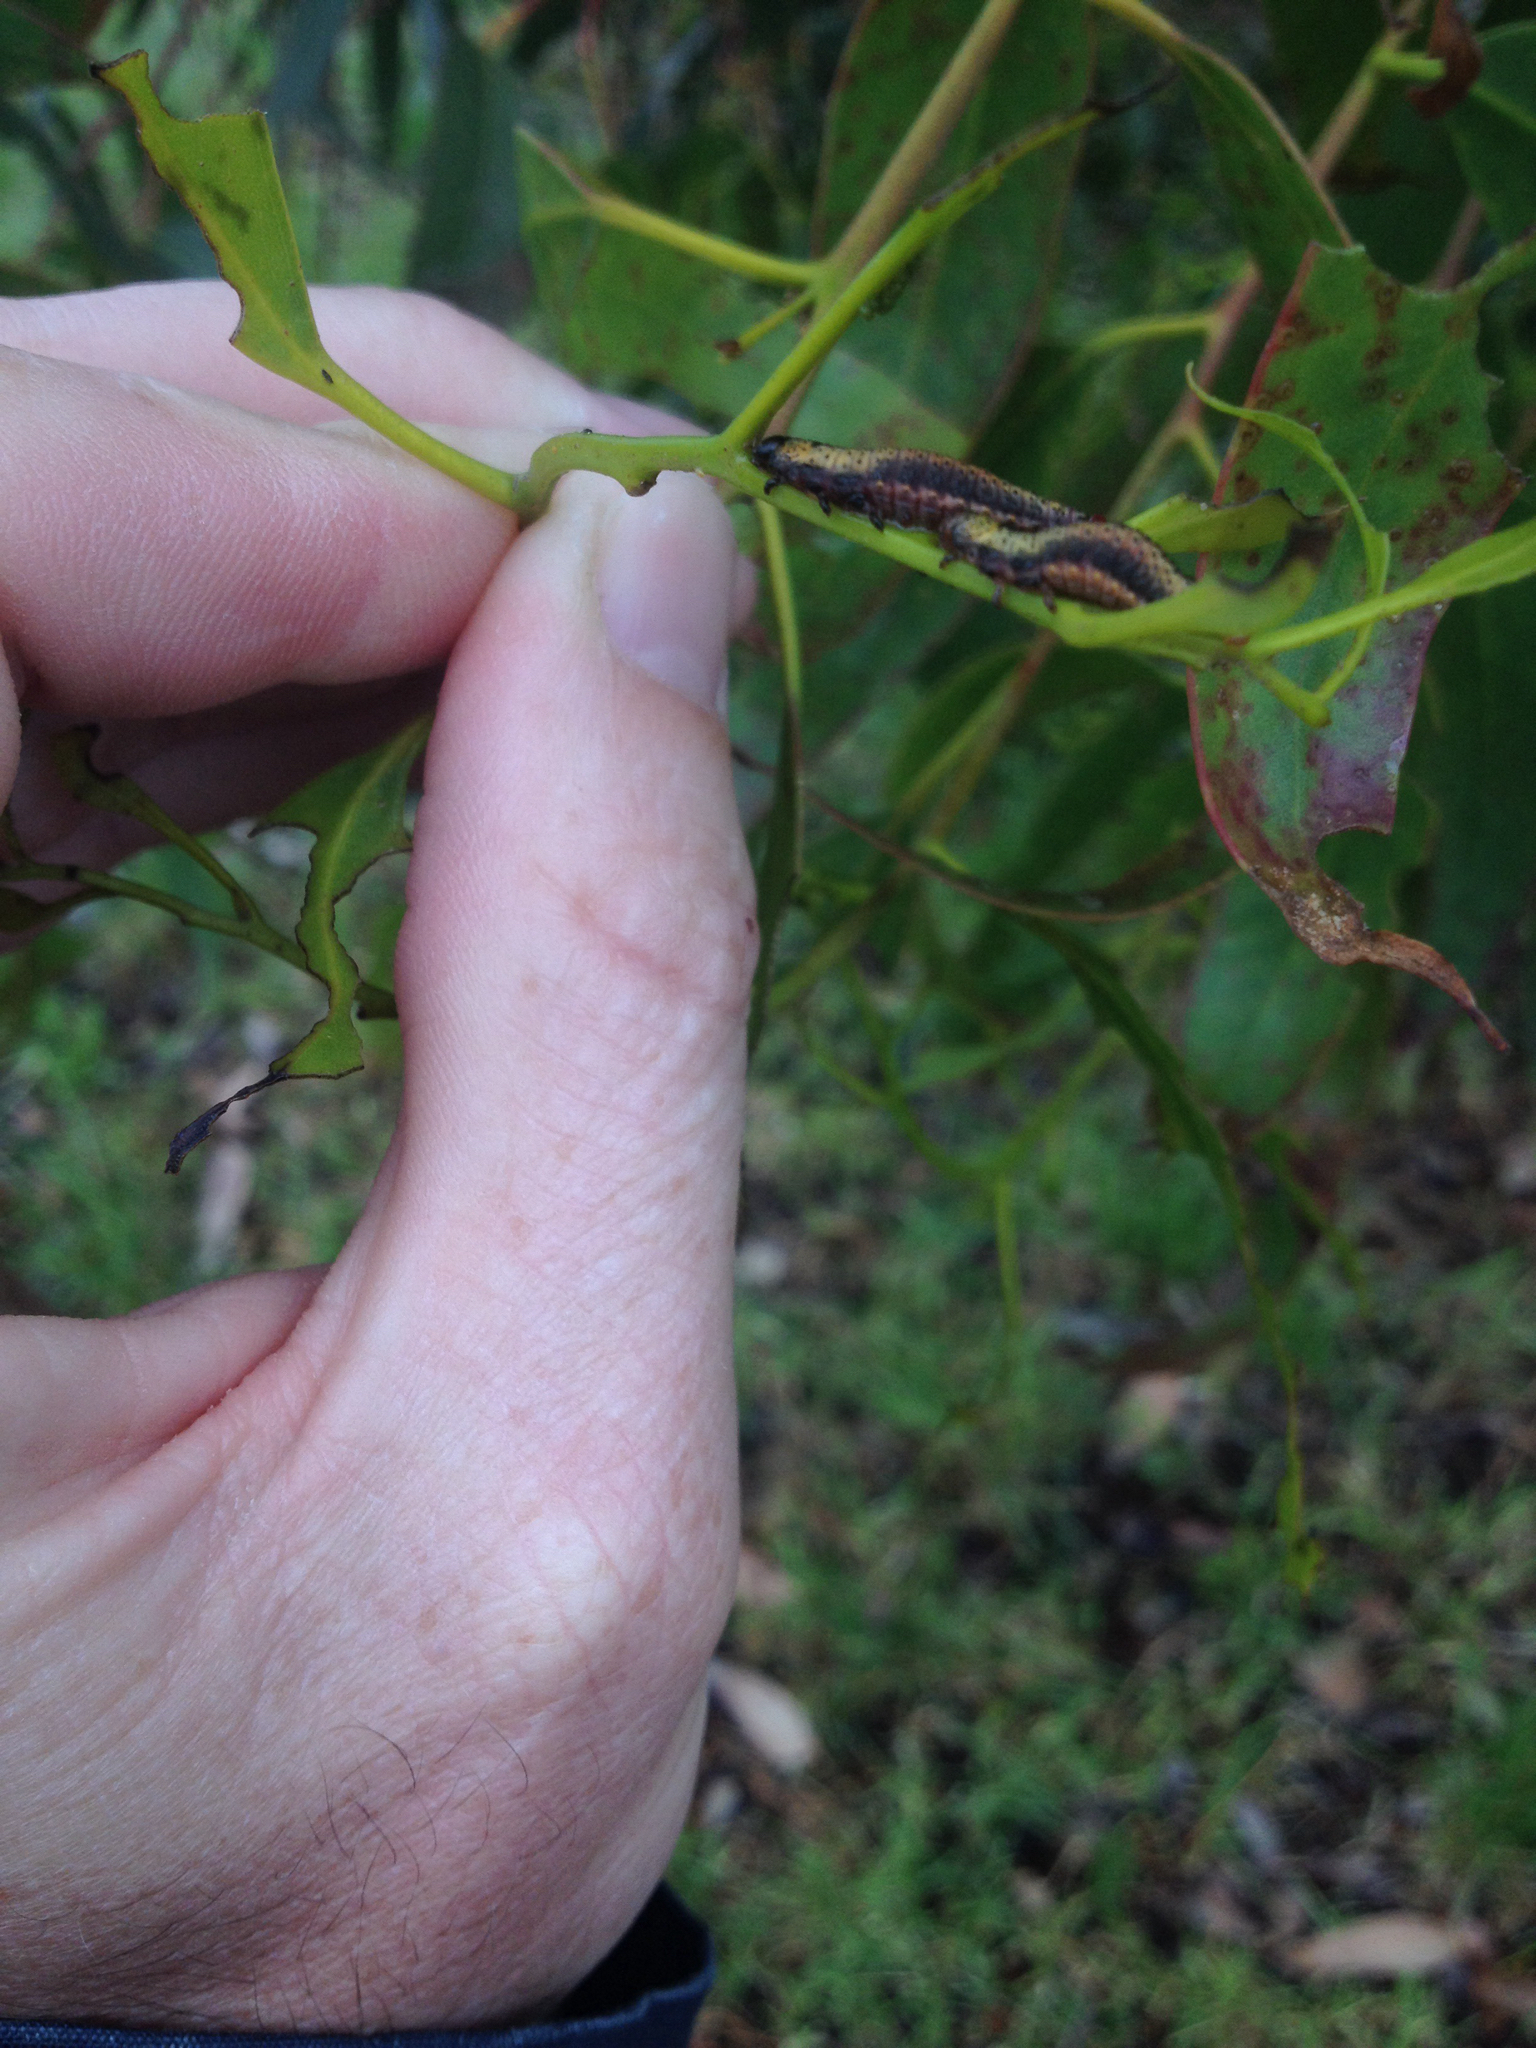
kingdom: Animalia
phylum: Arthropoda
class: Insecta
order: Coleoptera
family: Chrysomelidae
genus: Paropsis
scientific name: Paropsis charybdis
